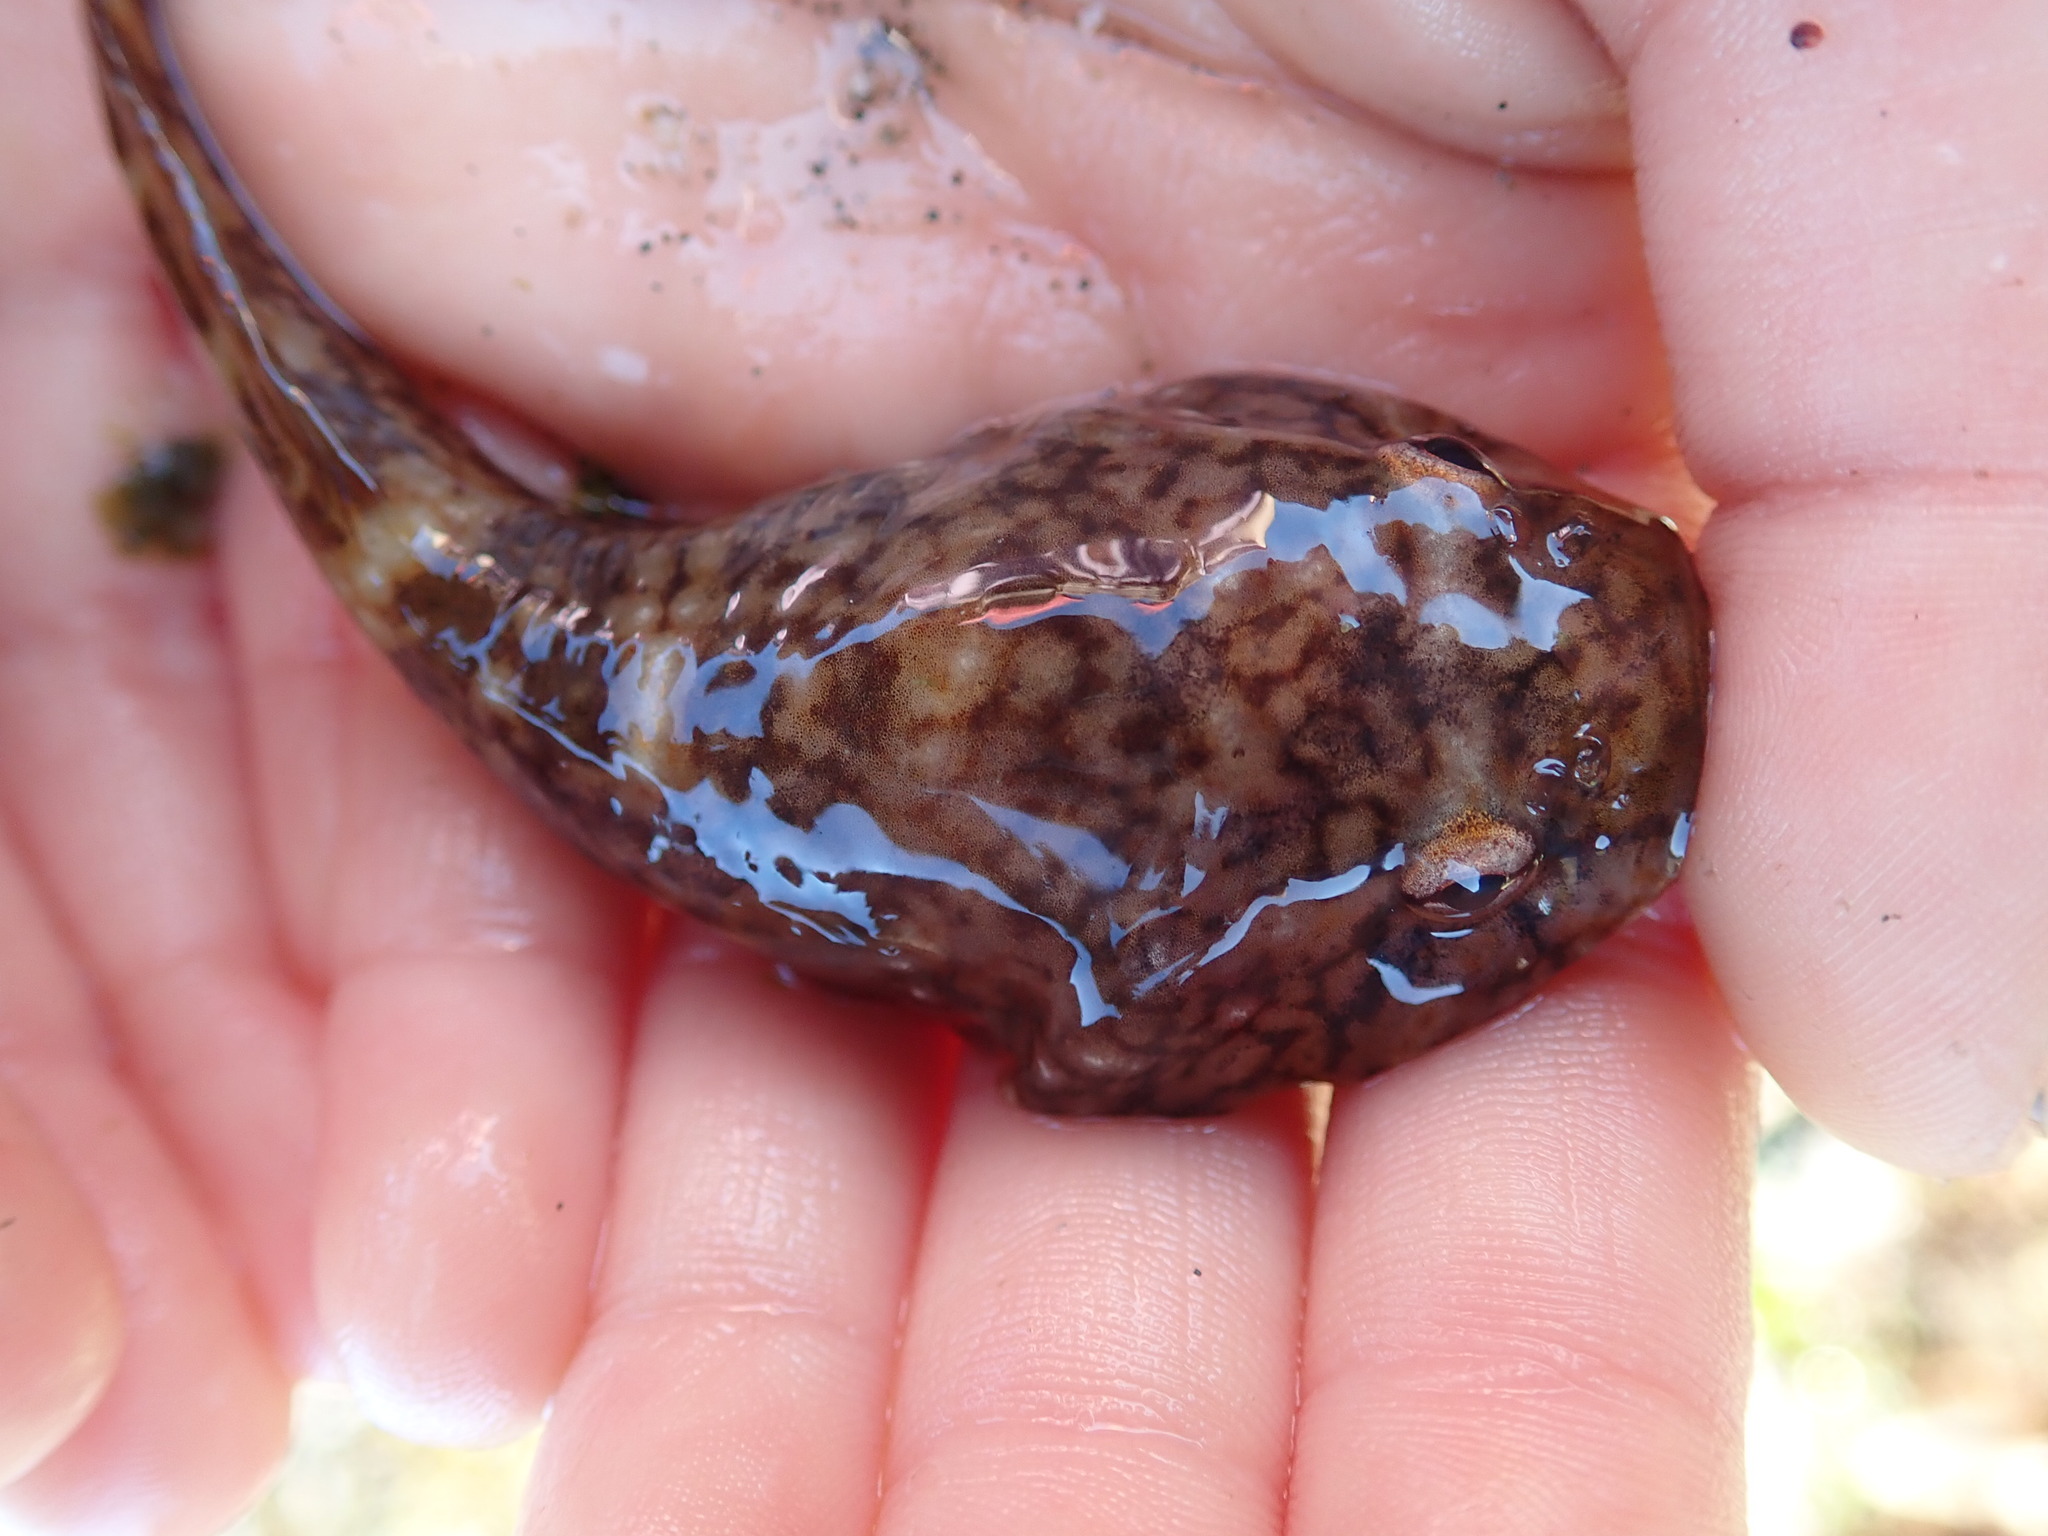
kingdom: Animalia
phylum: Chordata
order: Gobiesociformes
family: Gobiesocidae
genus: Gobiesox
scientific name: Gobiesox maeandricus
